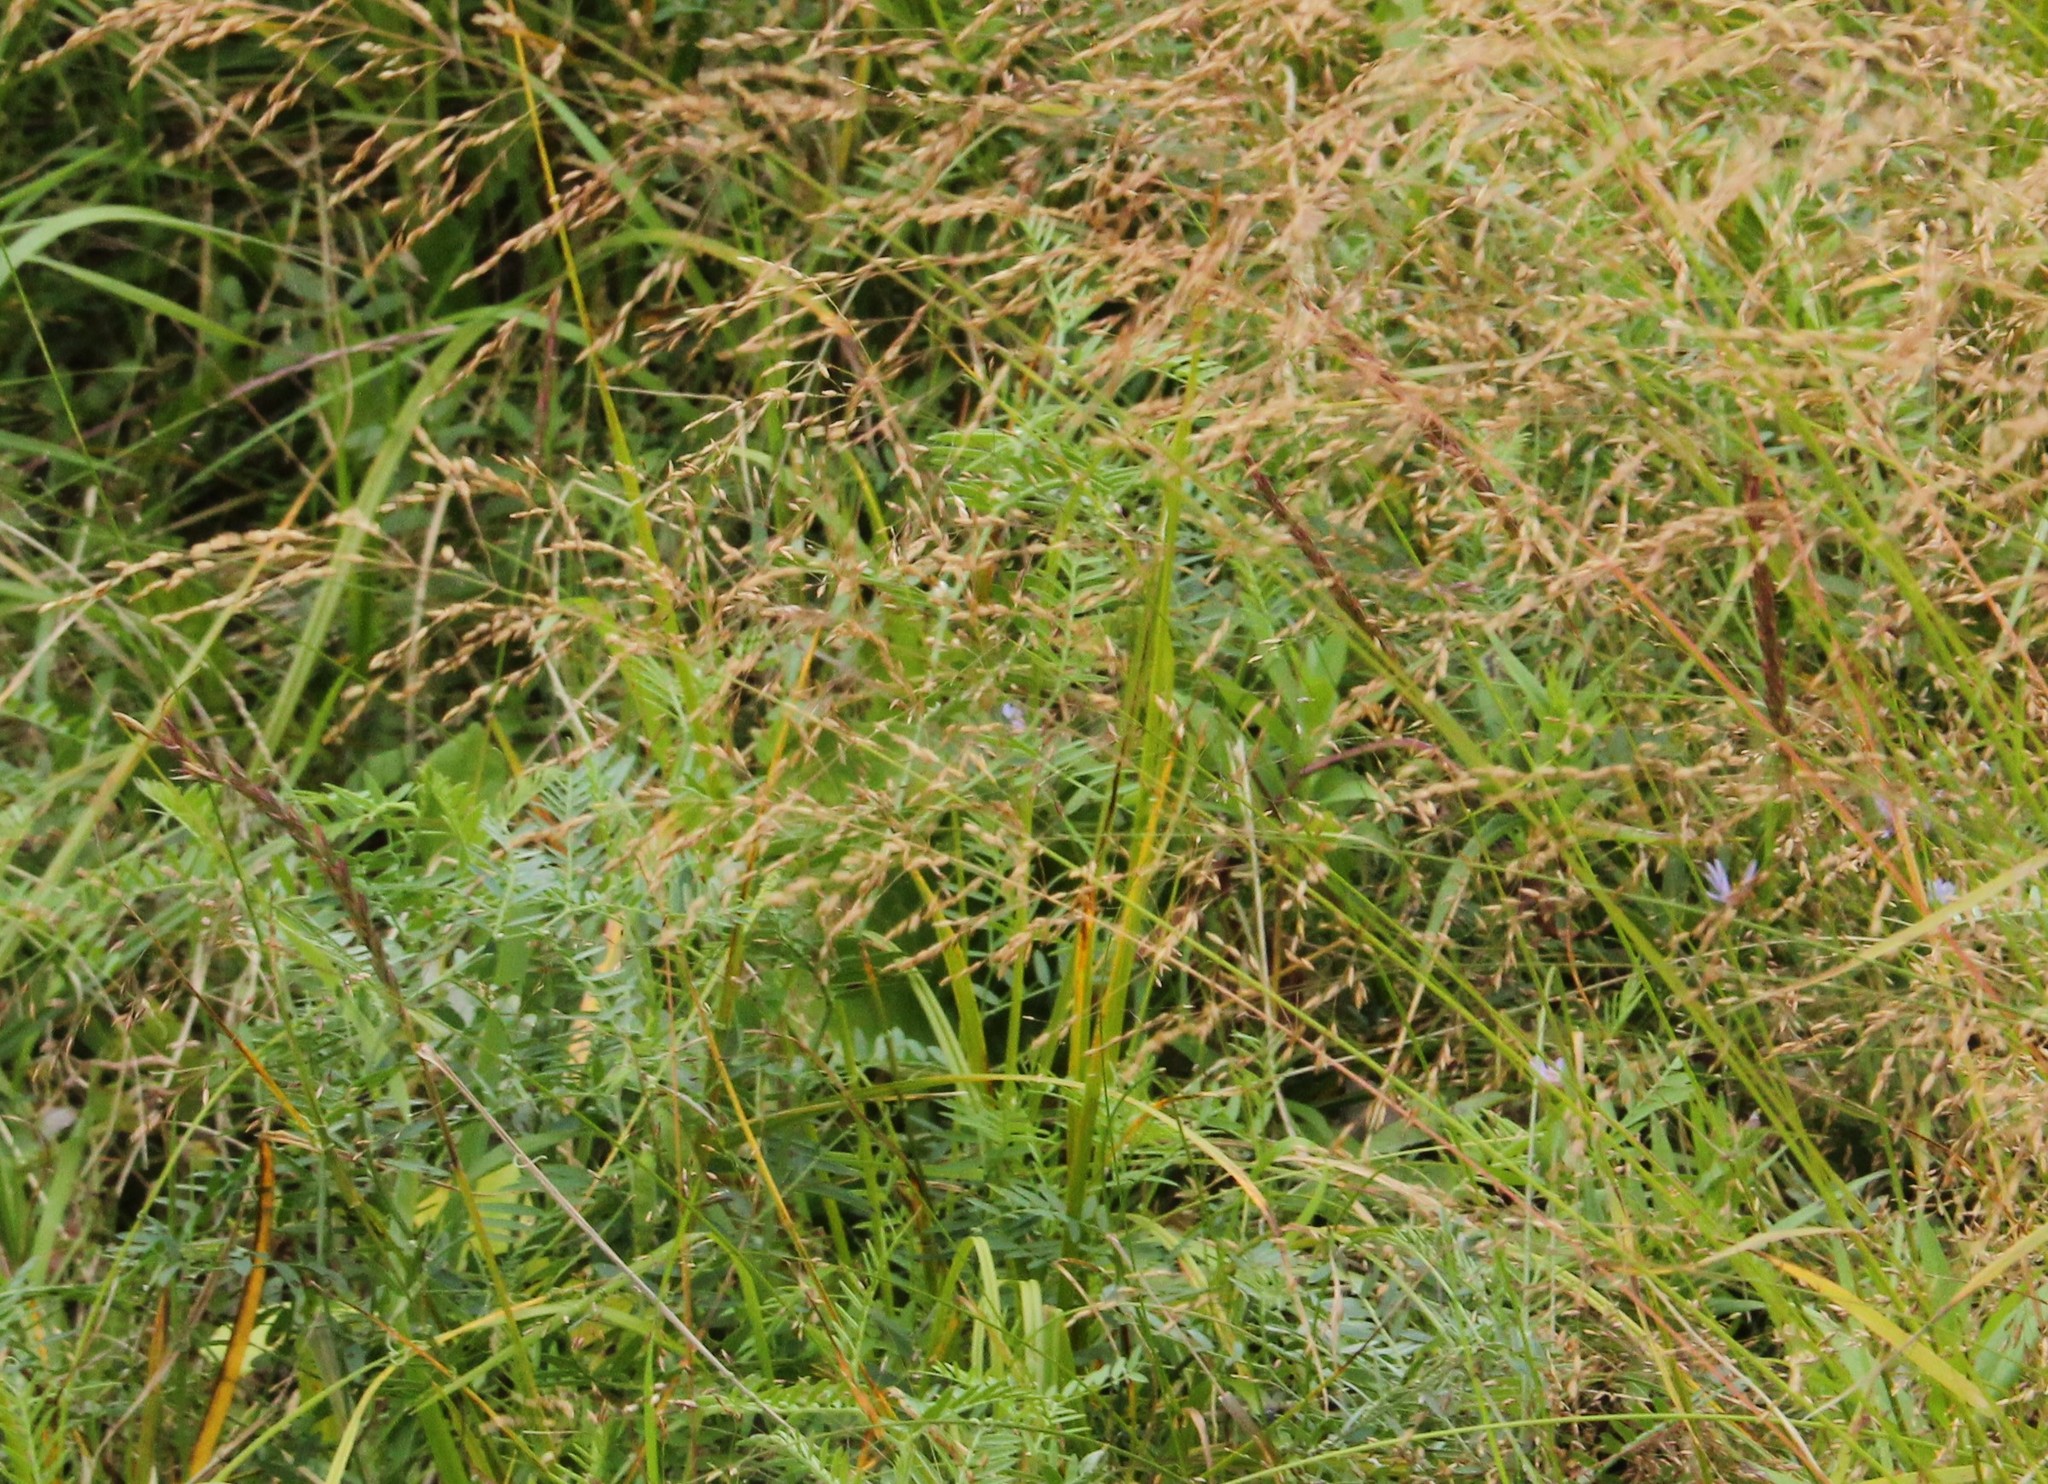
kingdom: Plantae
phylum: Tracheophyta
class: Liliopsida
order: Poales
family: Poaceae
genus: Elymus
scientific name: Elymus violaceus
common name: Arctic wheatgrass
